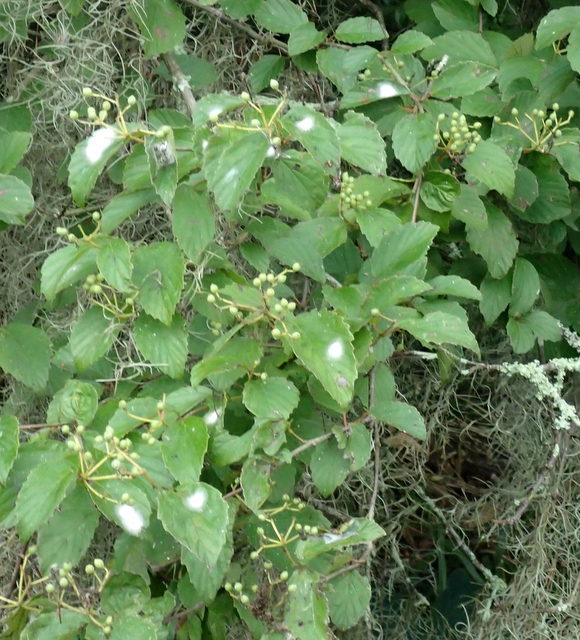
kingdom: Plantae
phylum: Tracheophyta
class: Magnoliopsida
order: Dipsacales
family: Viburnaceae
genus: Viburnum
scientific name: Viburnum scabrellum
